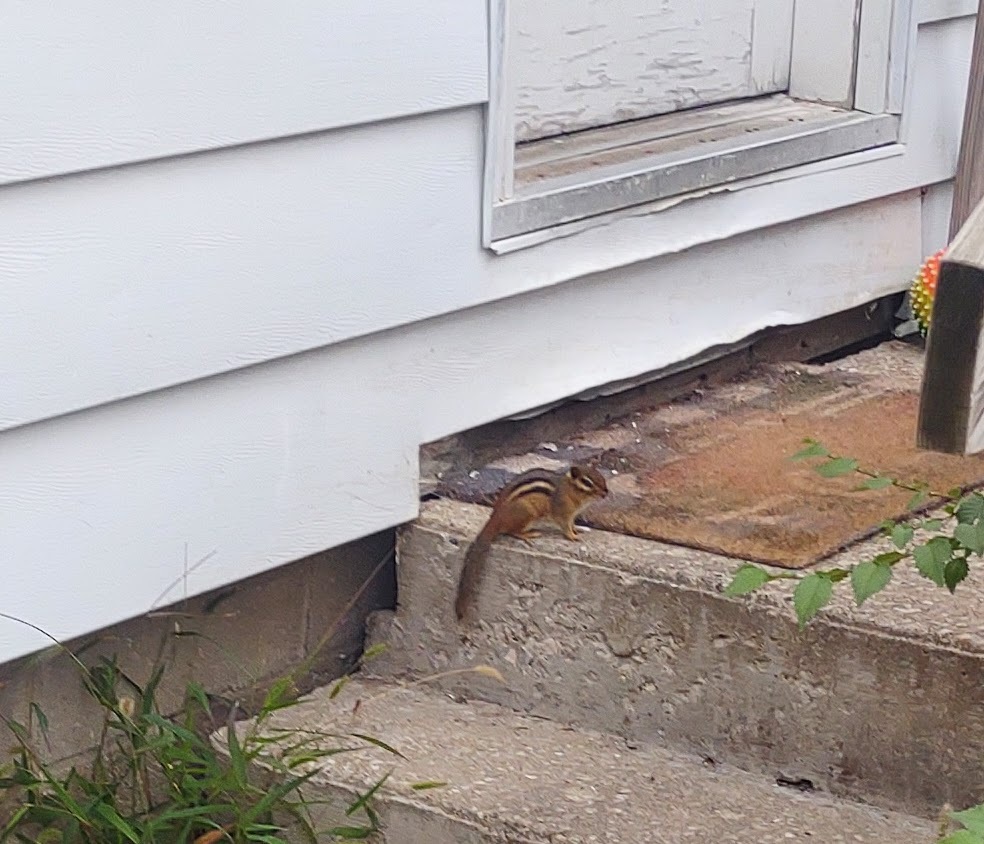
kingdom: Animalia
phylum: Chordata
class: Mammalia
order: Rodentia
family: Sciuridae
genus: Tamias
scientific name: Tamias striatus
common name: Eastern chipmunk
